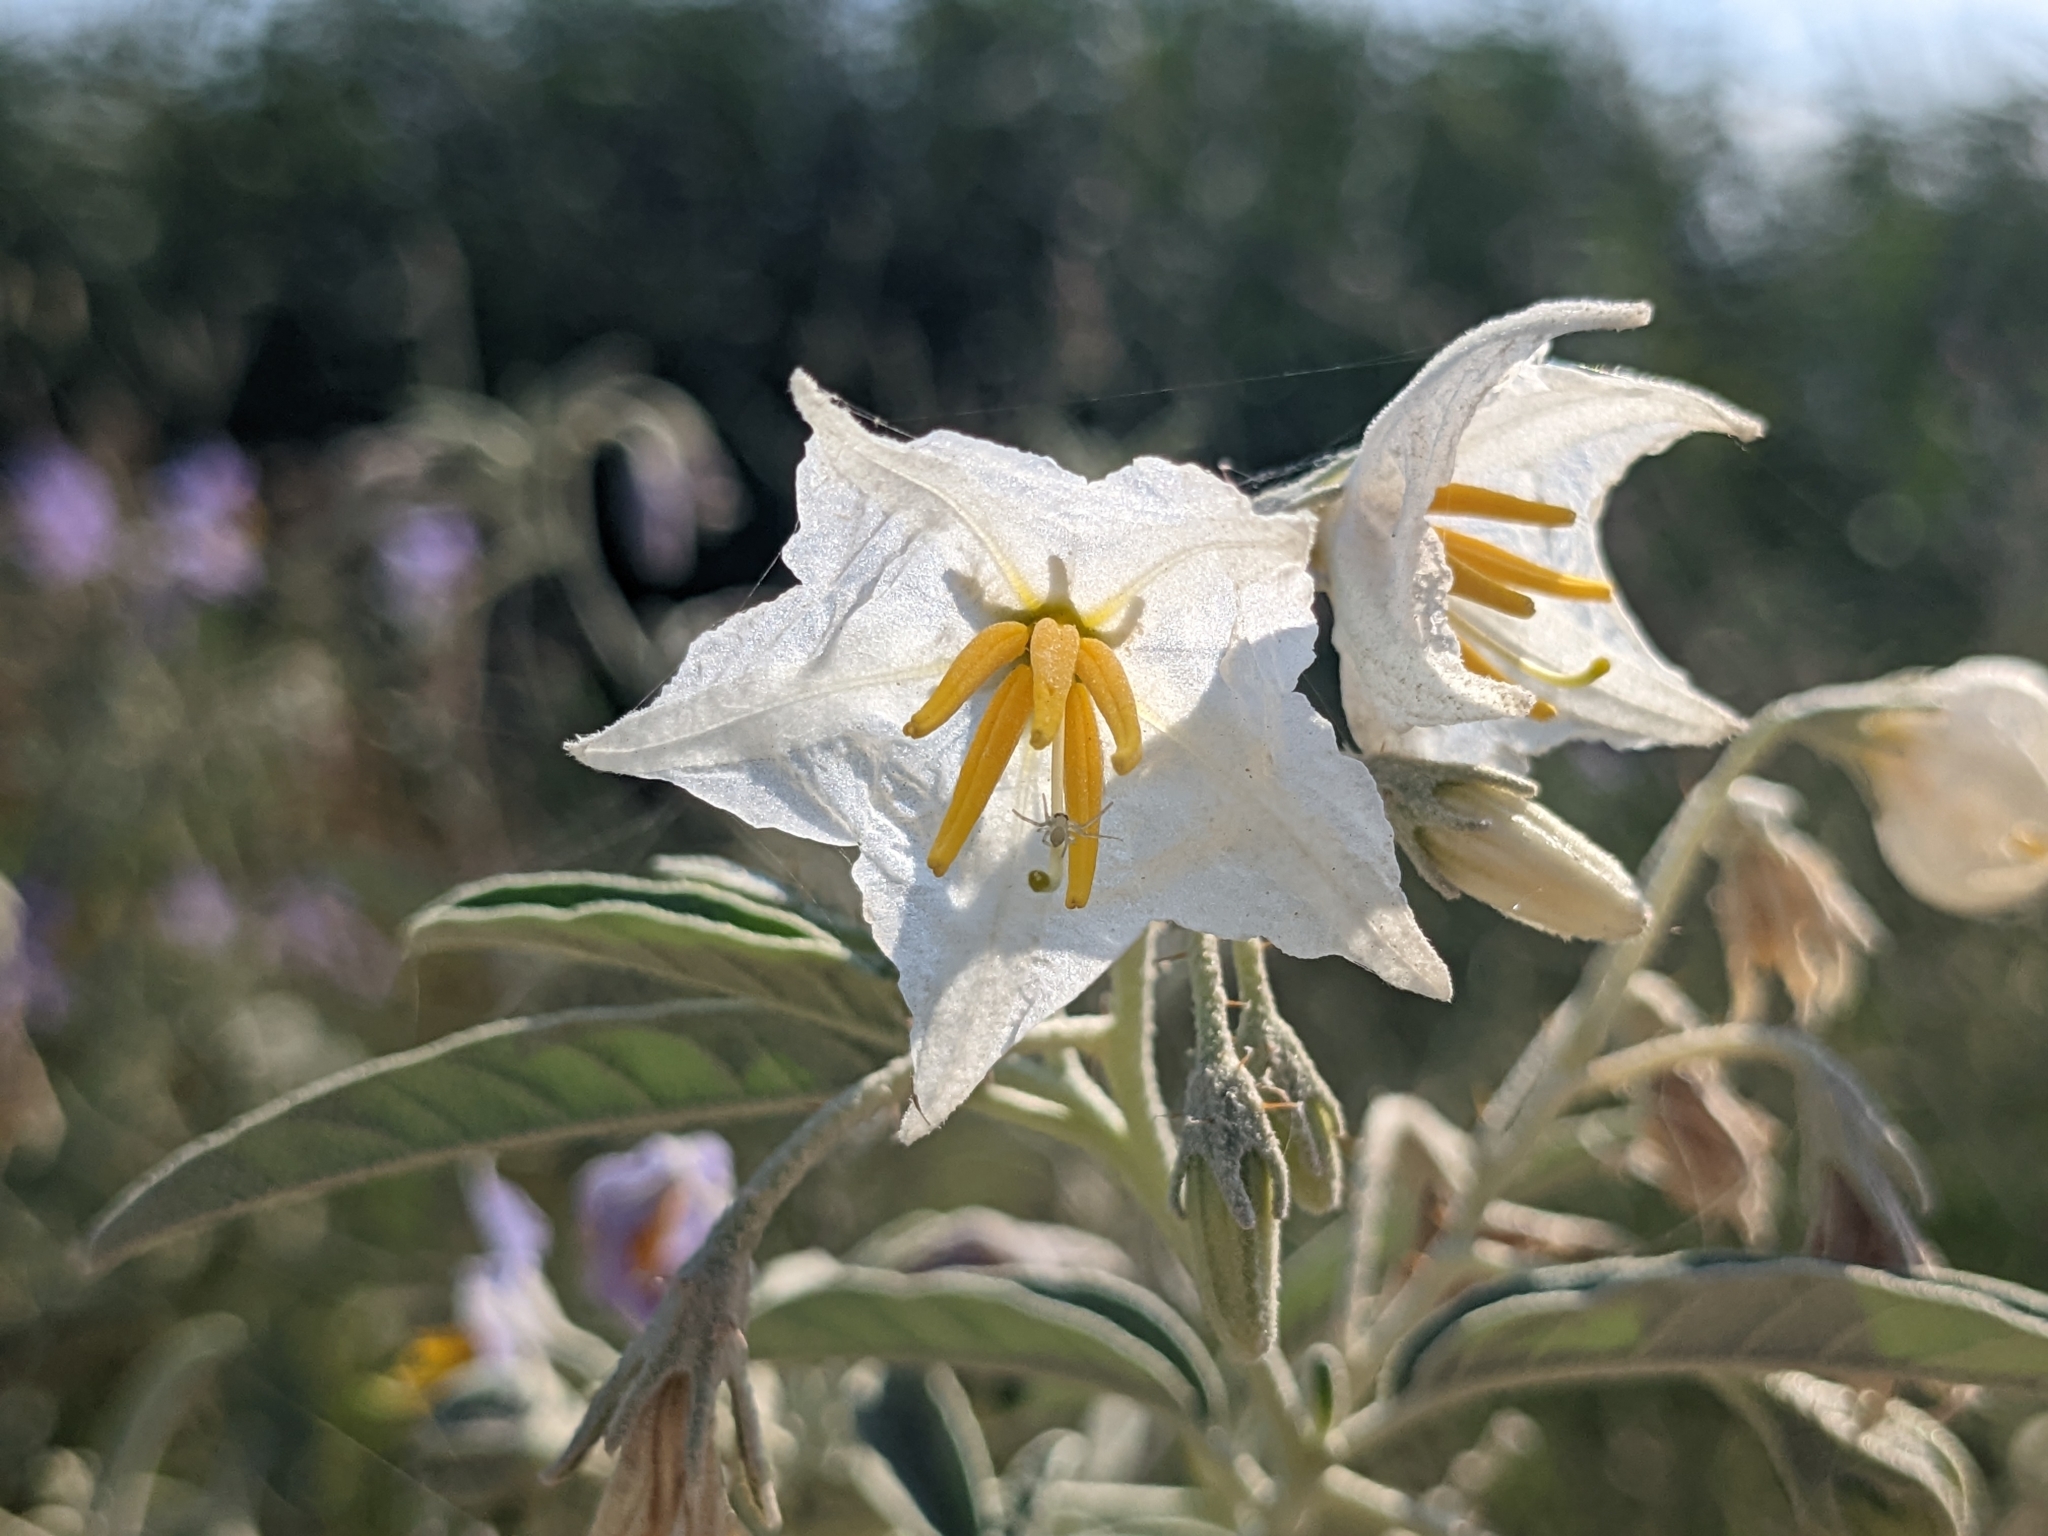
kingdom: Plantae
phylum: Tracheophyta
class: Magnoliopsida
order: Solanales
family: Solanaceae
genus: Solanum
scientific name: Solanum elaeagnifolium
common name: Silverleaf nightshade
